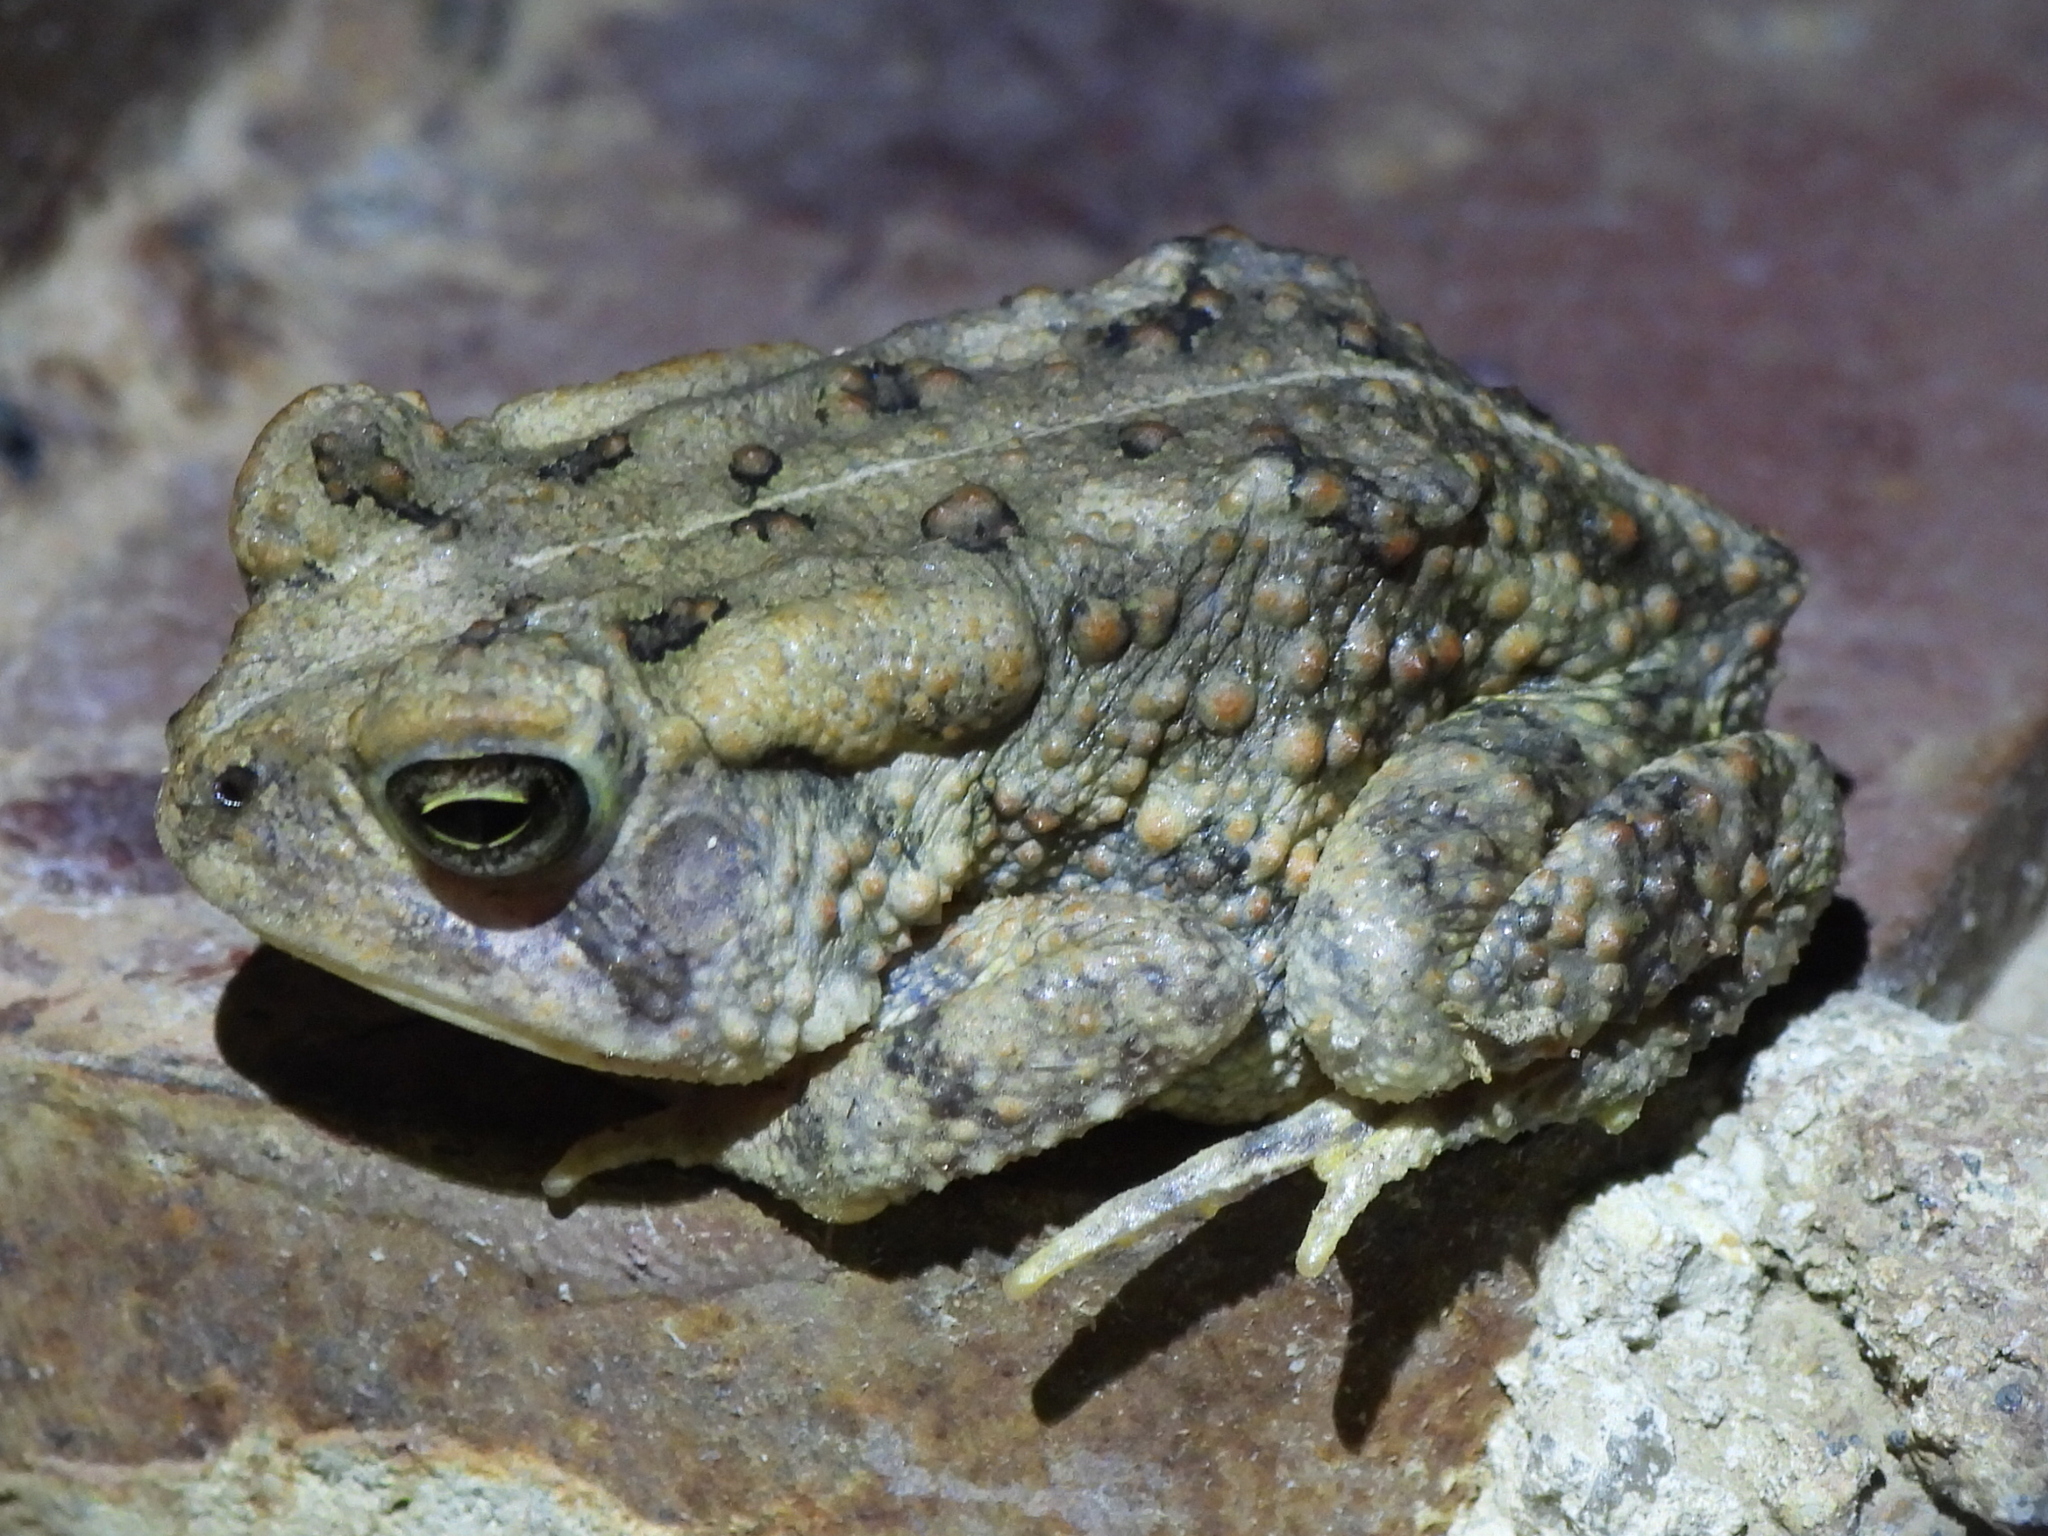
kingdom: Animalia
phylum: Chordata
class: Amphibia
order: Anura
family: Bufonidae
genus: Anaxyrus
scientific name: Anaxyrus fowleri
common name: Fowler's toad
